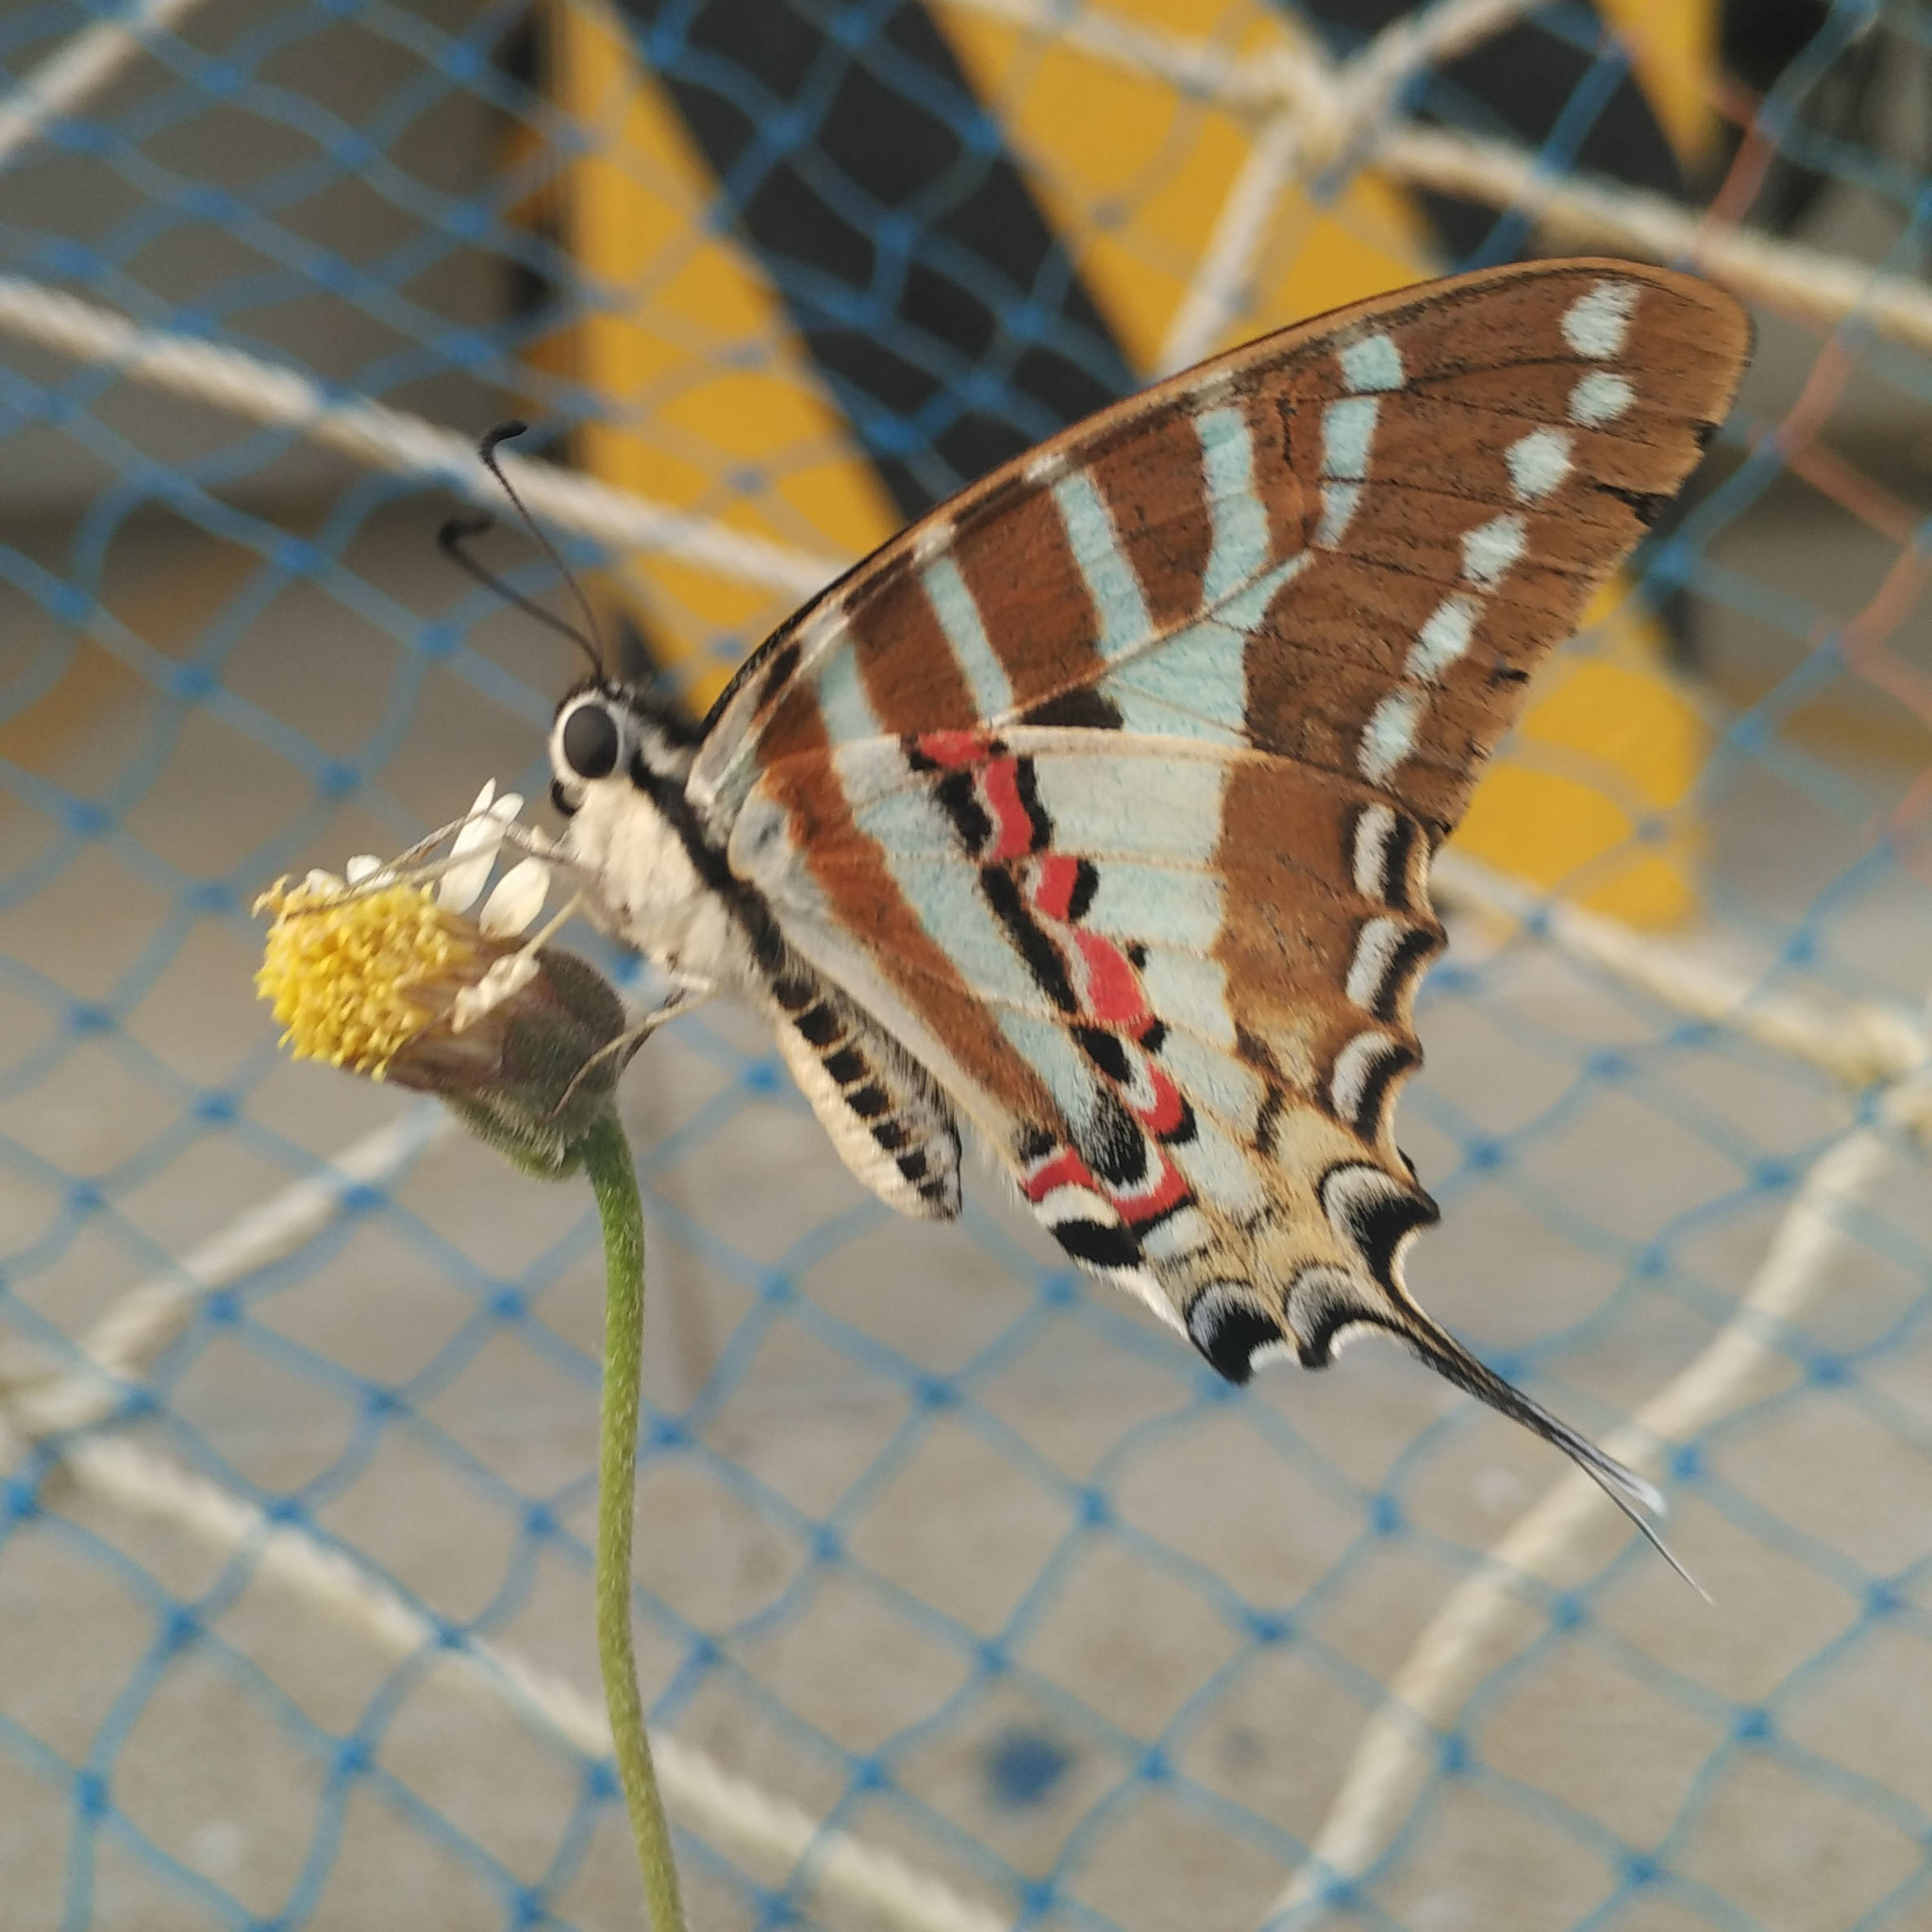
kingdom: Animalia
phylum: Arthropoda
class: Insecta
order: Lepidoptera
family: Papilionidae
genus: Graphium
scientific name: Graphium nomius
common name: Spot swordtail
